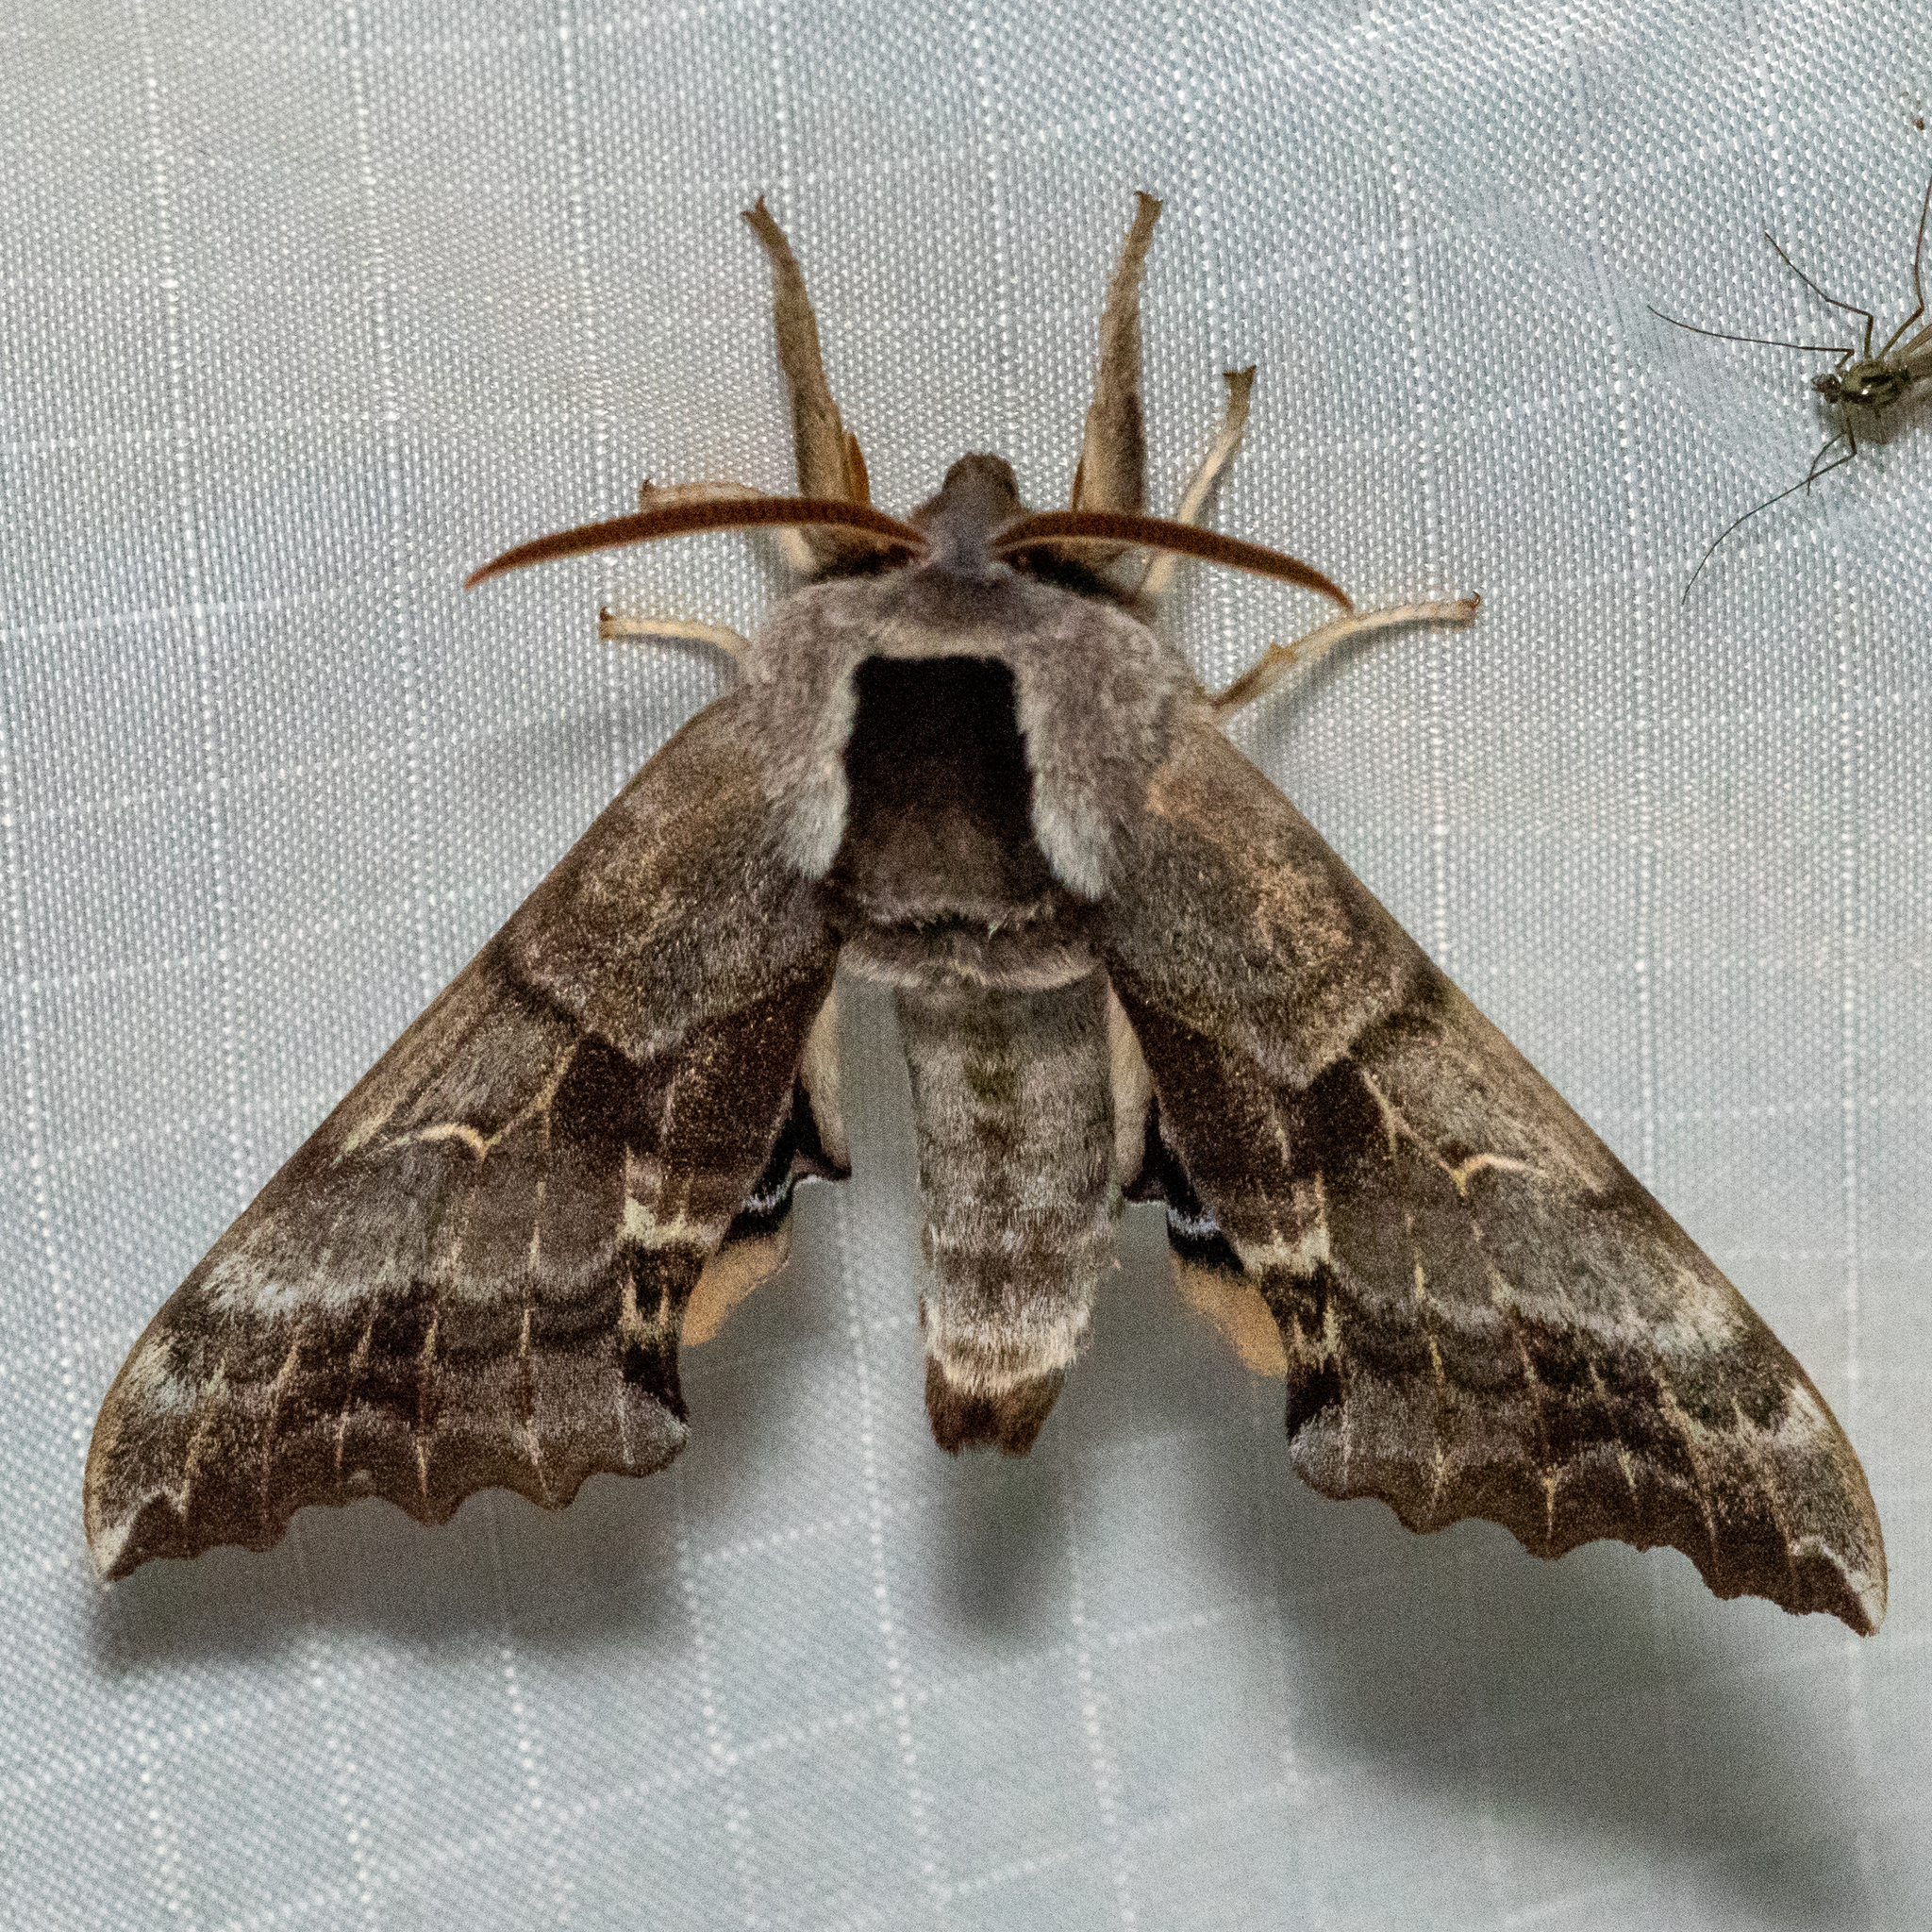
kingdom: Animalia
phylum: Arthropoda
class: Insecta
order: Lepidoptera
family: Sphingidae
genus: Smerinthus
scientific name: Smerinthus cerisyi
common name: Cerisy's sphinx moth
